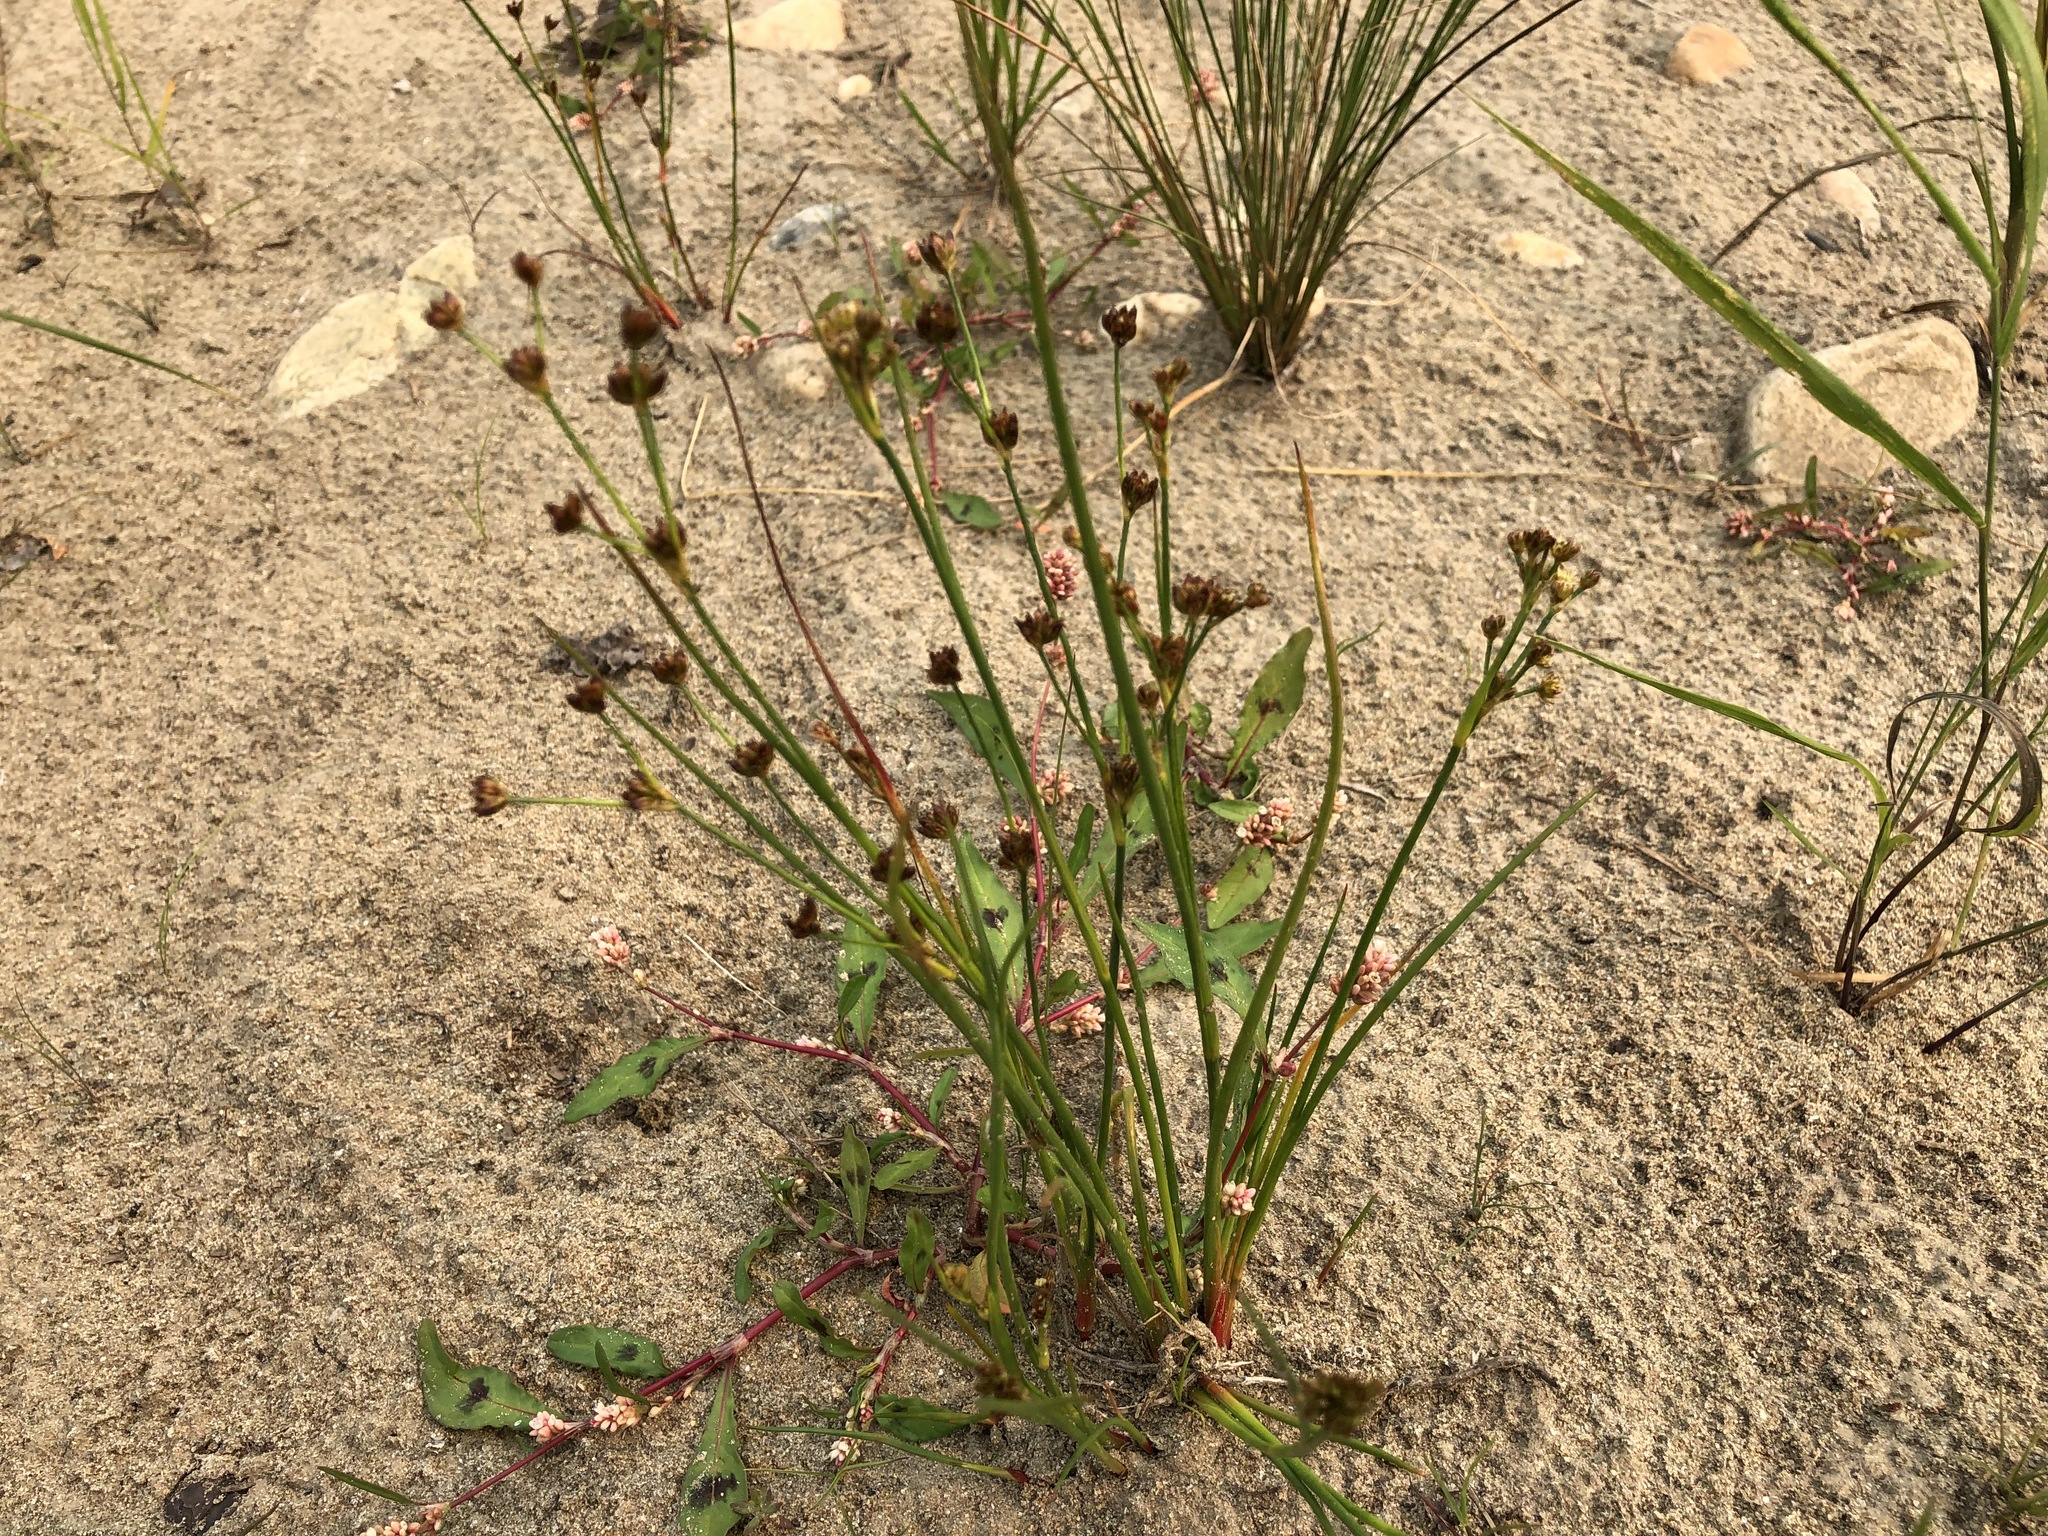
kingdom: Plantae
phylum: Tracheophyta
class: Liliopsida
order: Poales
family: Juncaceae
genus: Juncus
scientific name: Juncus alpinoarticulatus
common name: Alpine rush
